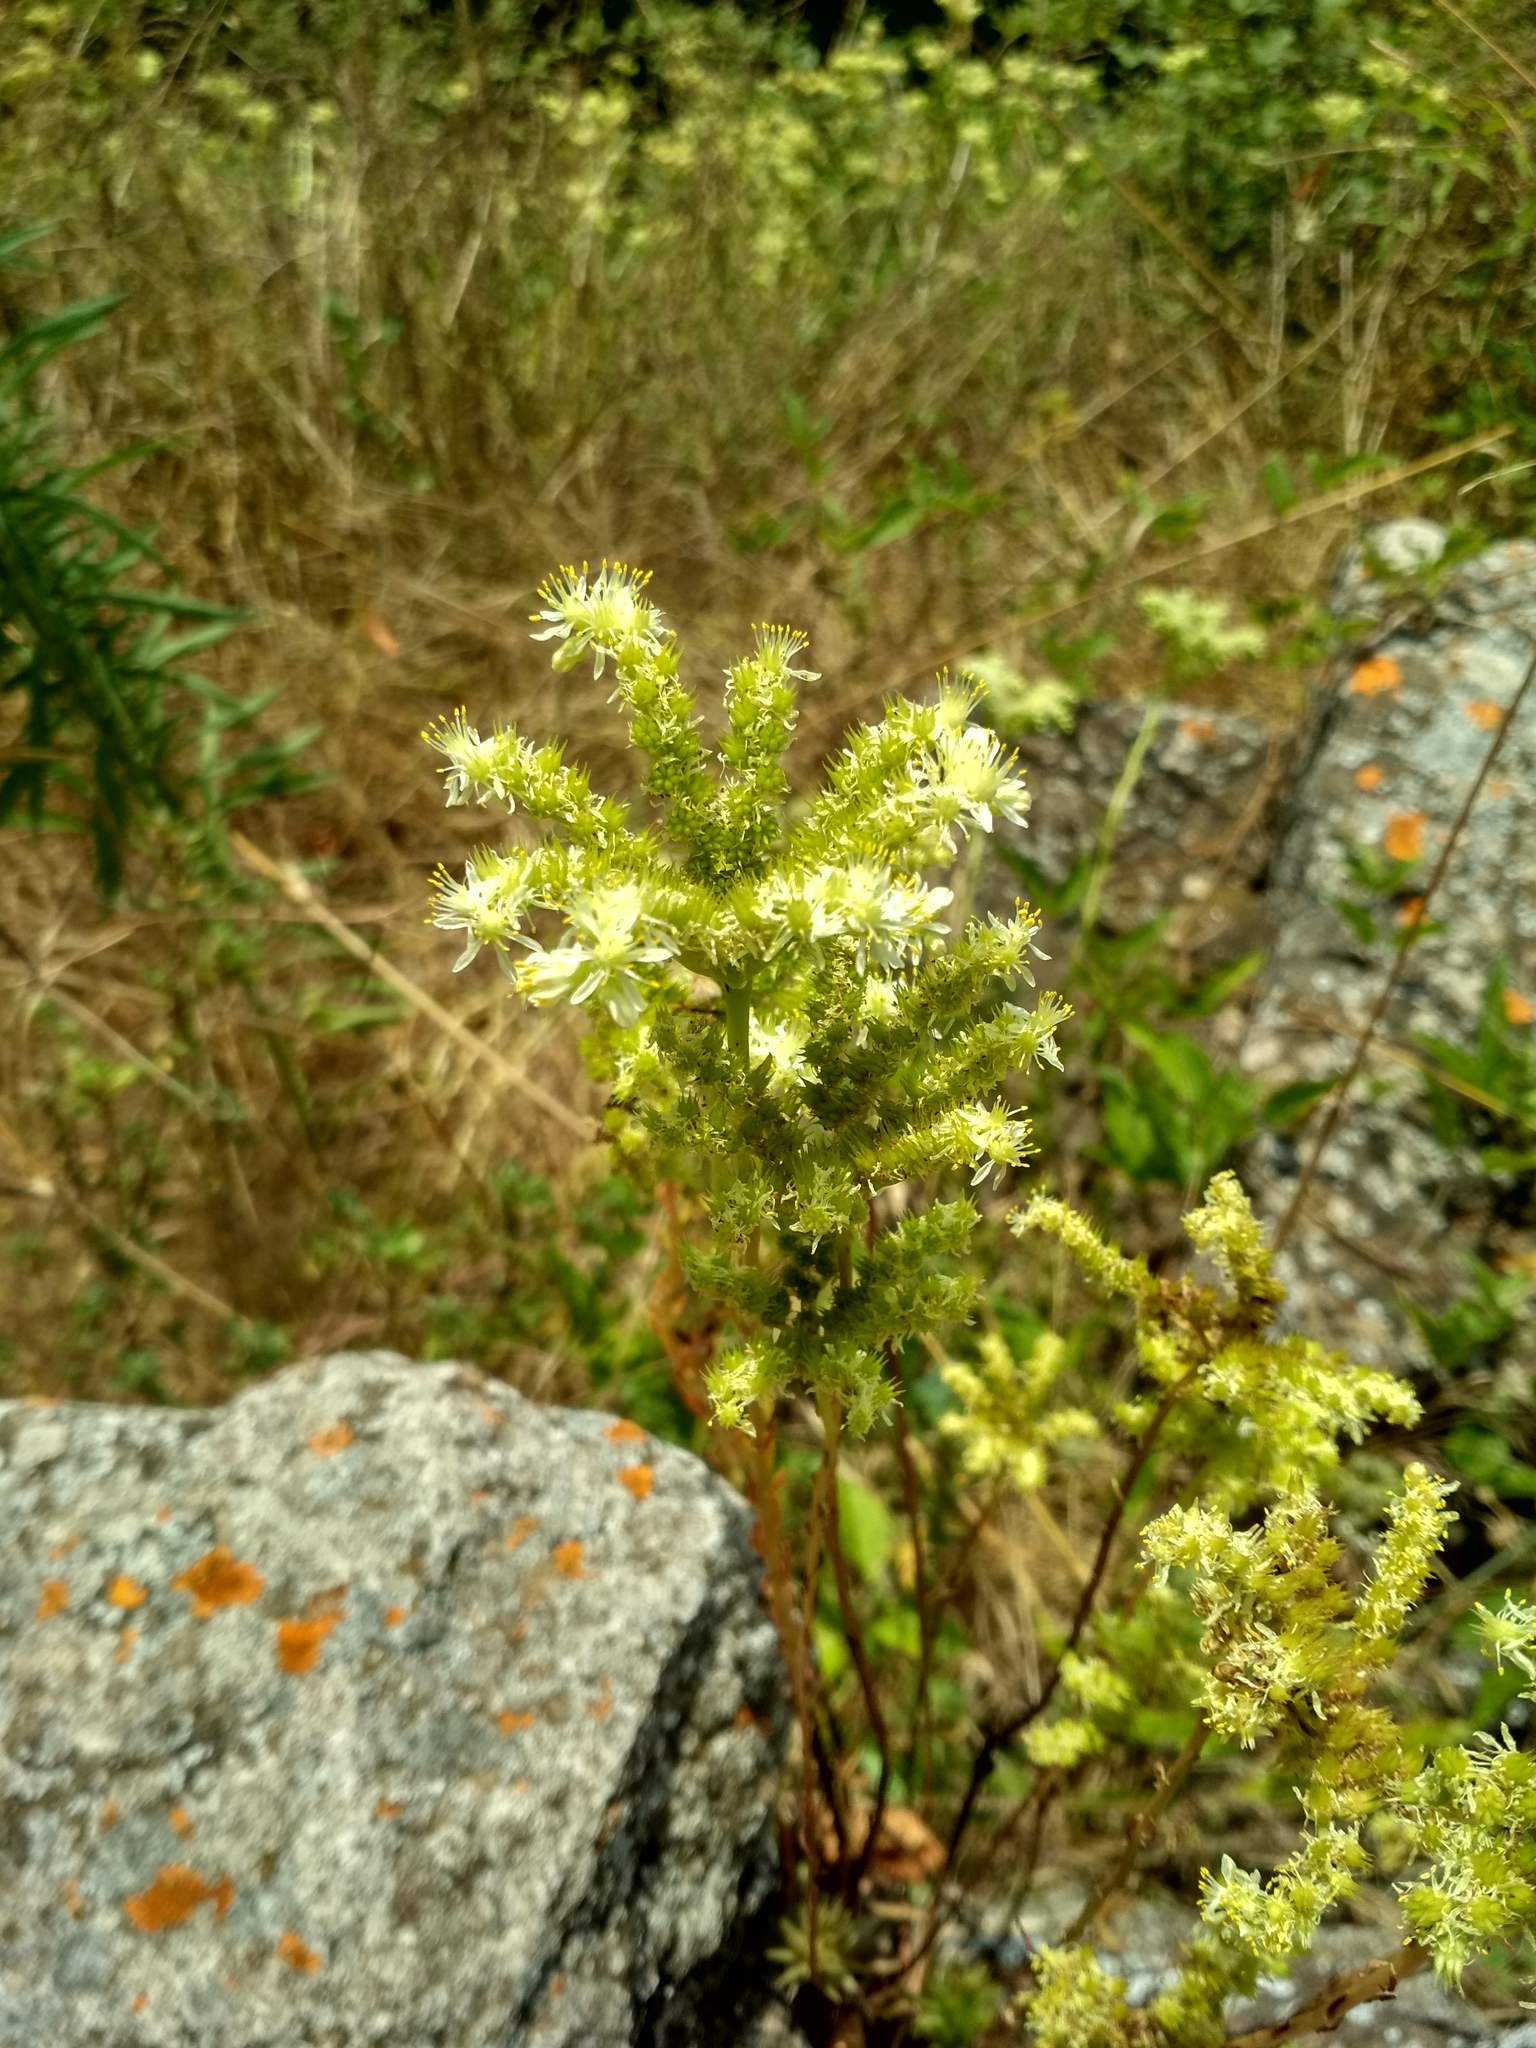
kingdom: Plantae
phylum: Tracheophyta
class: Magnoliopsida
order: Saxifragales
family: Crassulaceae
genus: Petrosedum
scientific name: Petrosedum sediforme
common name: Pale stonecrop
